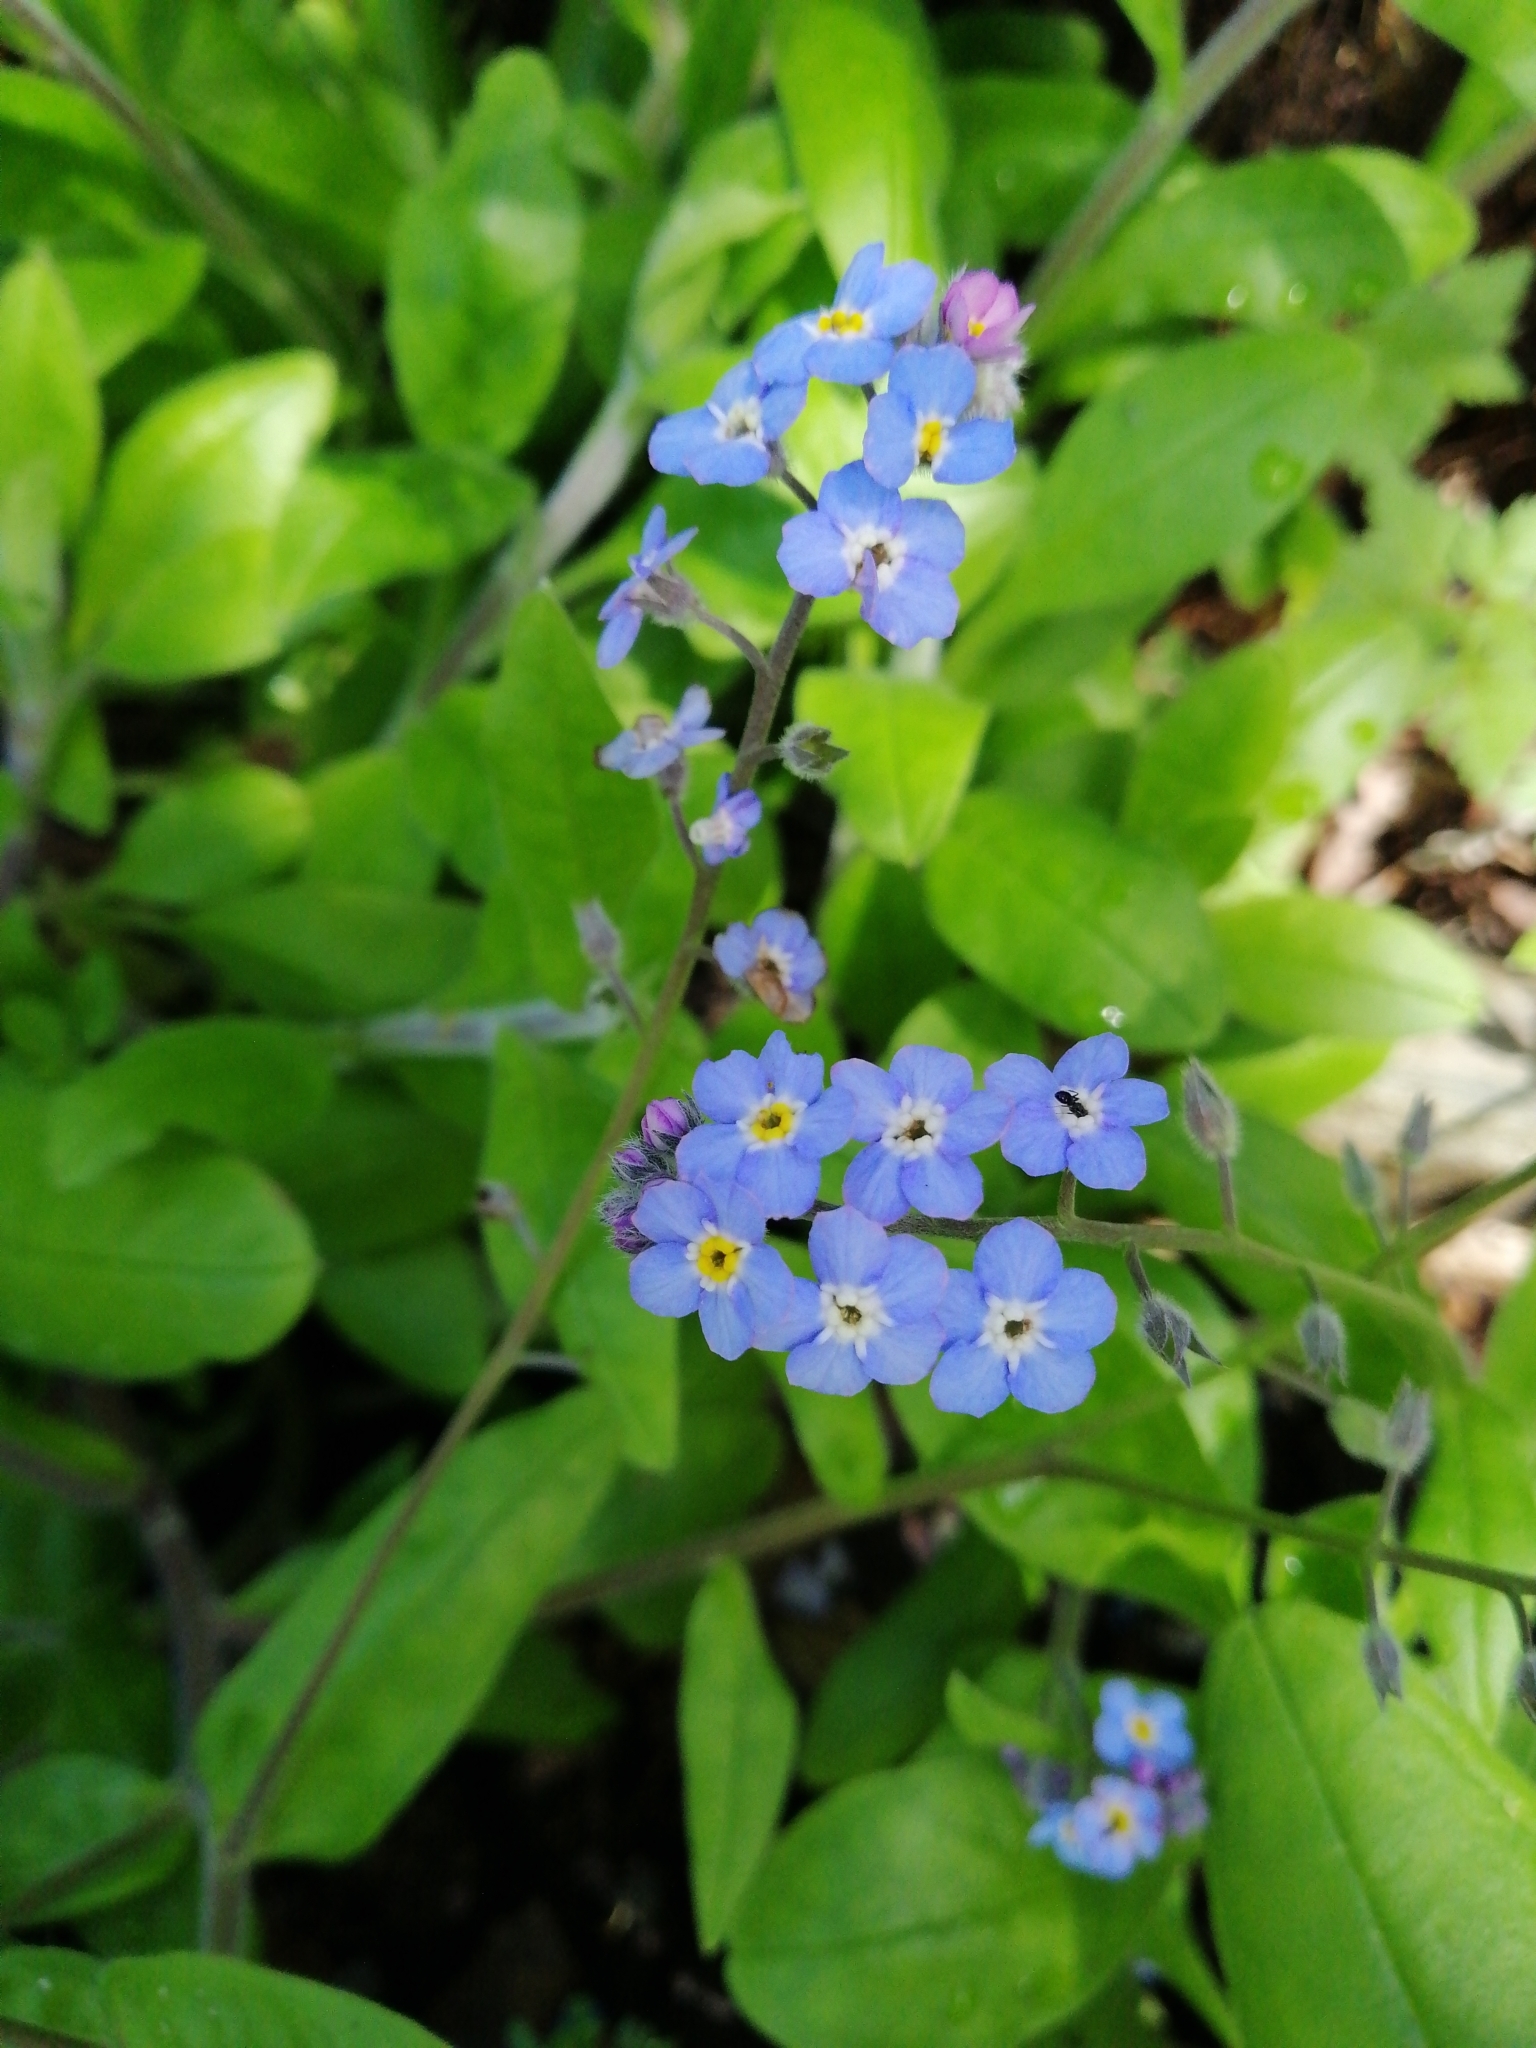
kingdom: Plantae
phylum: Tracheophyta
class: Magnoliopsida
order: Boraginales
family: Boraginaceae
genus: Myosotis
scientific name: Myosotis sylvatica
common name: Wood forget-me-not
